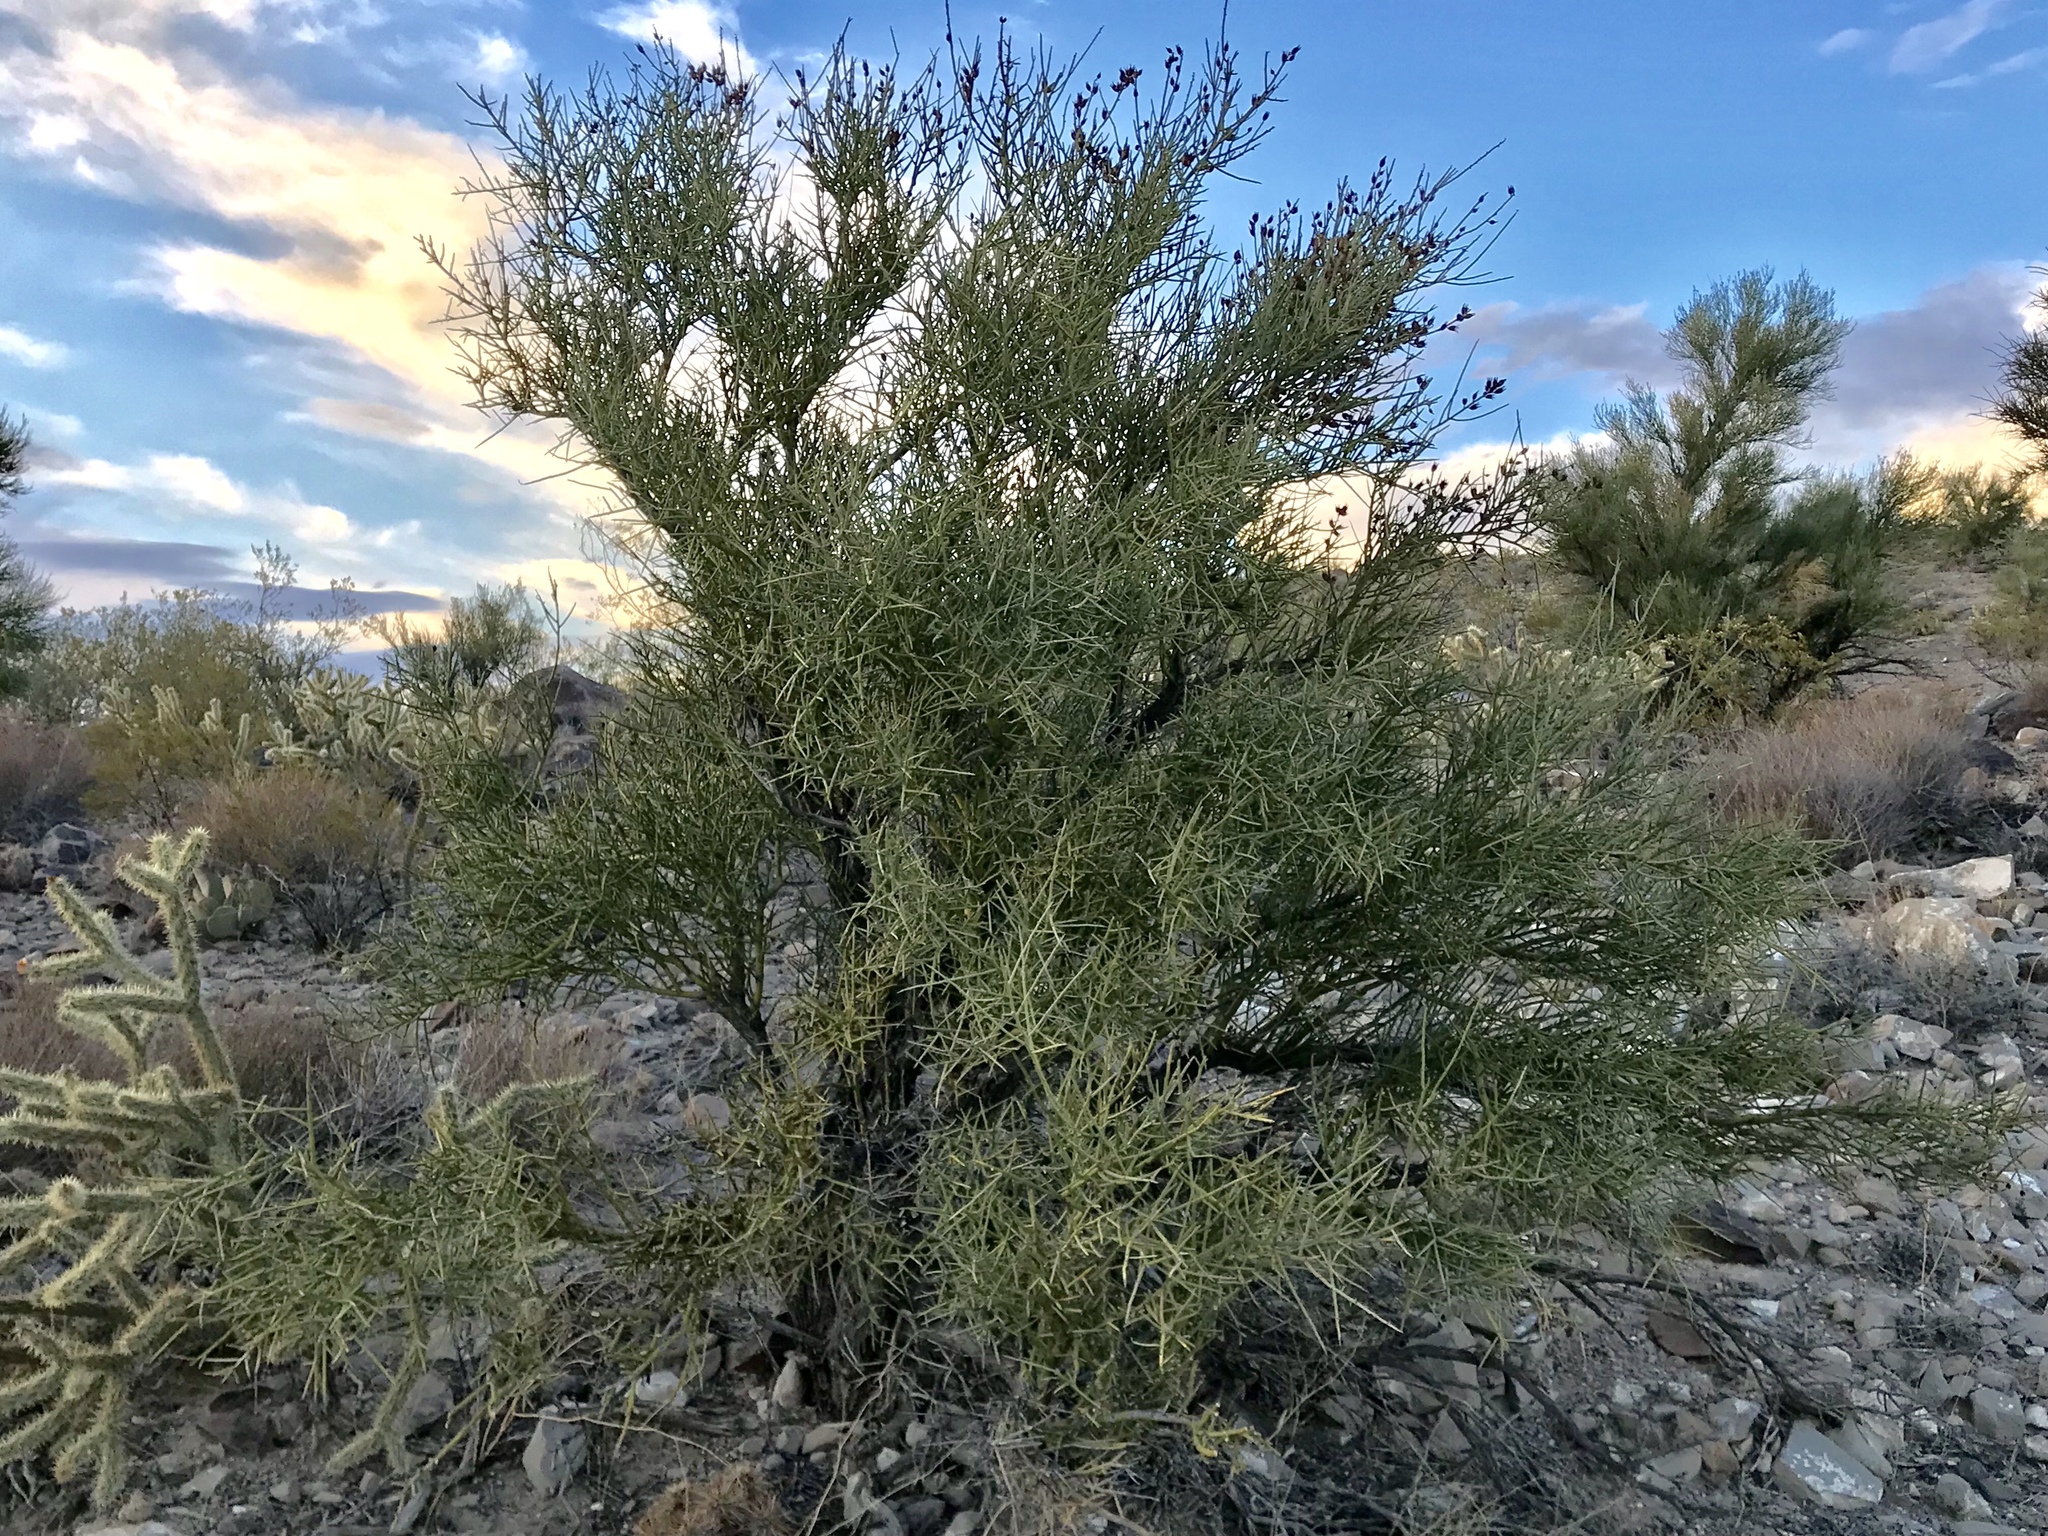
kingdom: Plantae
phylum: Tracheophyta
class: Magnoliopsida
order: Celastrales
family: Celastraceae
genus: Canotia
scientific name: Canotia holacantha
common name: Crucifixion thorns
